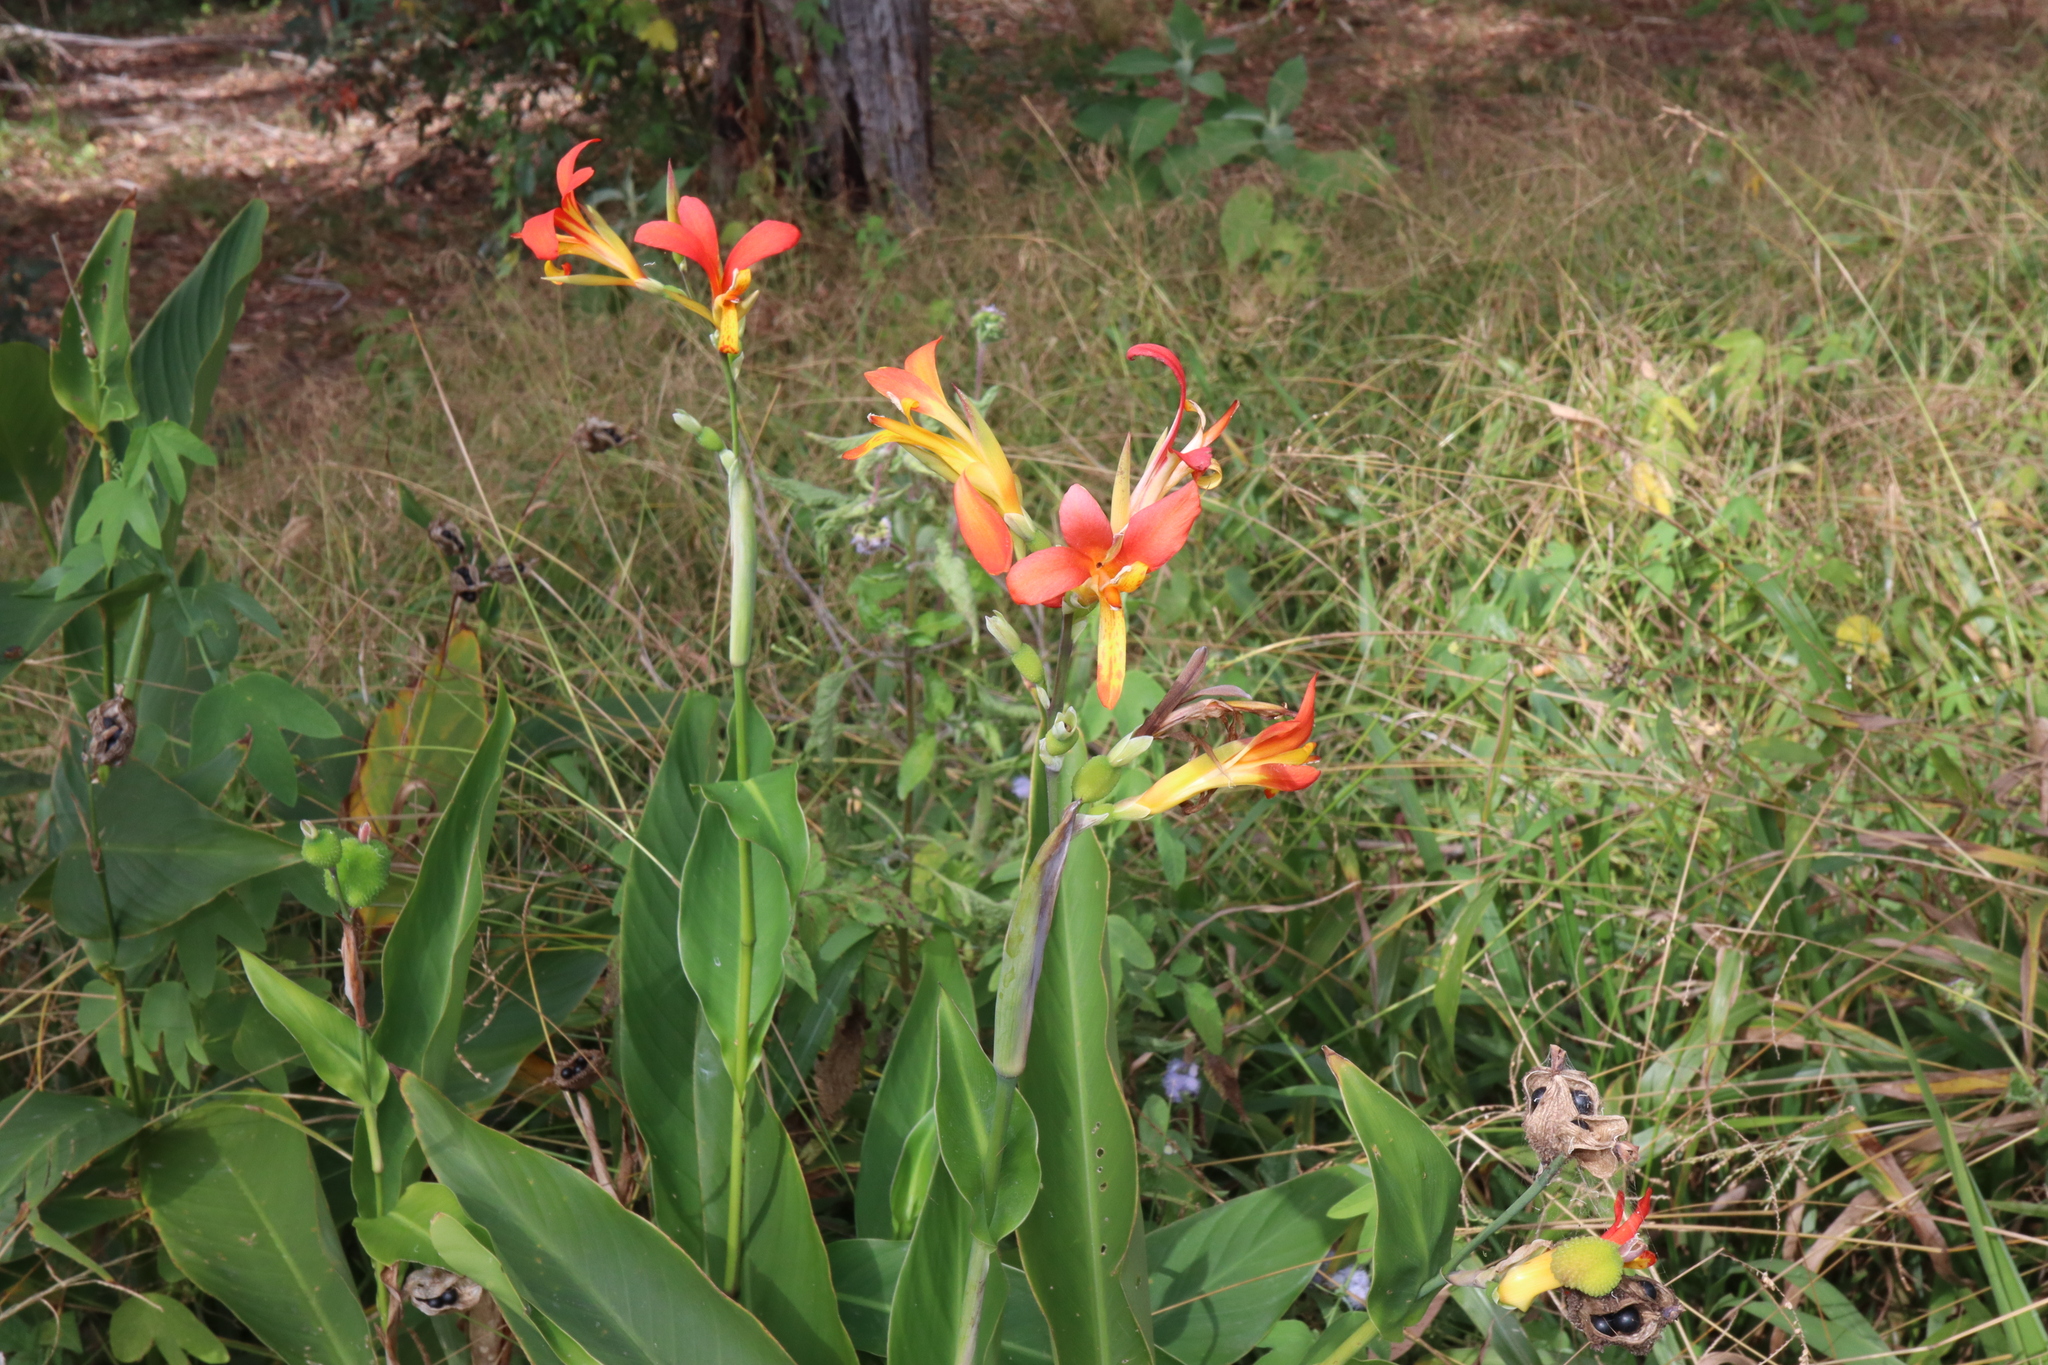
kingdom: Plantae
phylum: Tracheophyta
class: Liliopsida
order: Zingiberales
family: Cannaceae
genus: Canna
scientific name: Canna indica
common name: Indian shot
